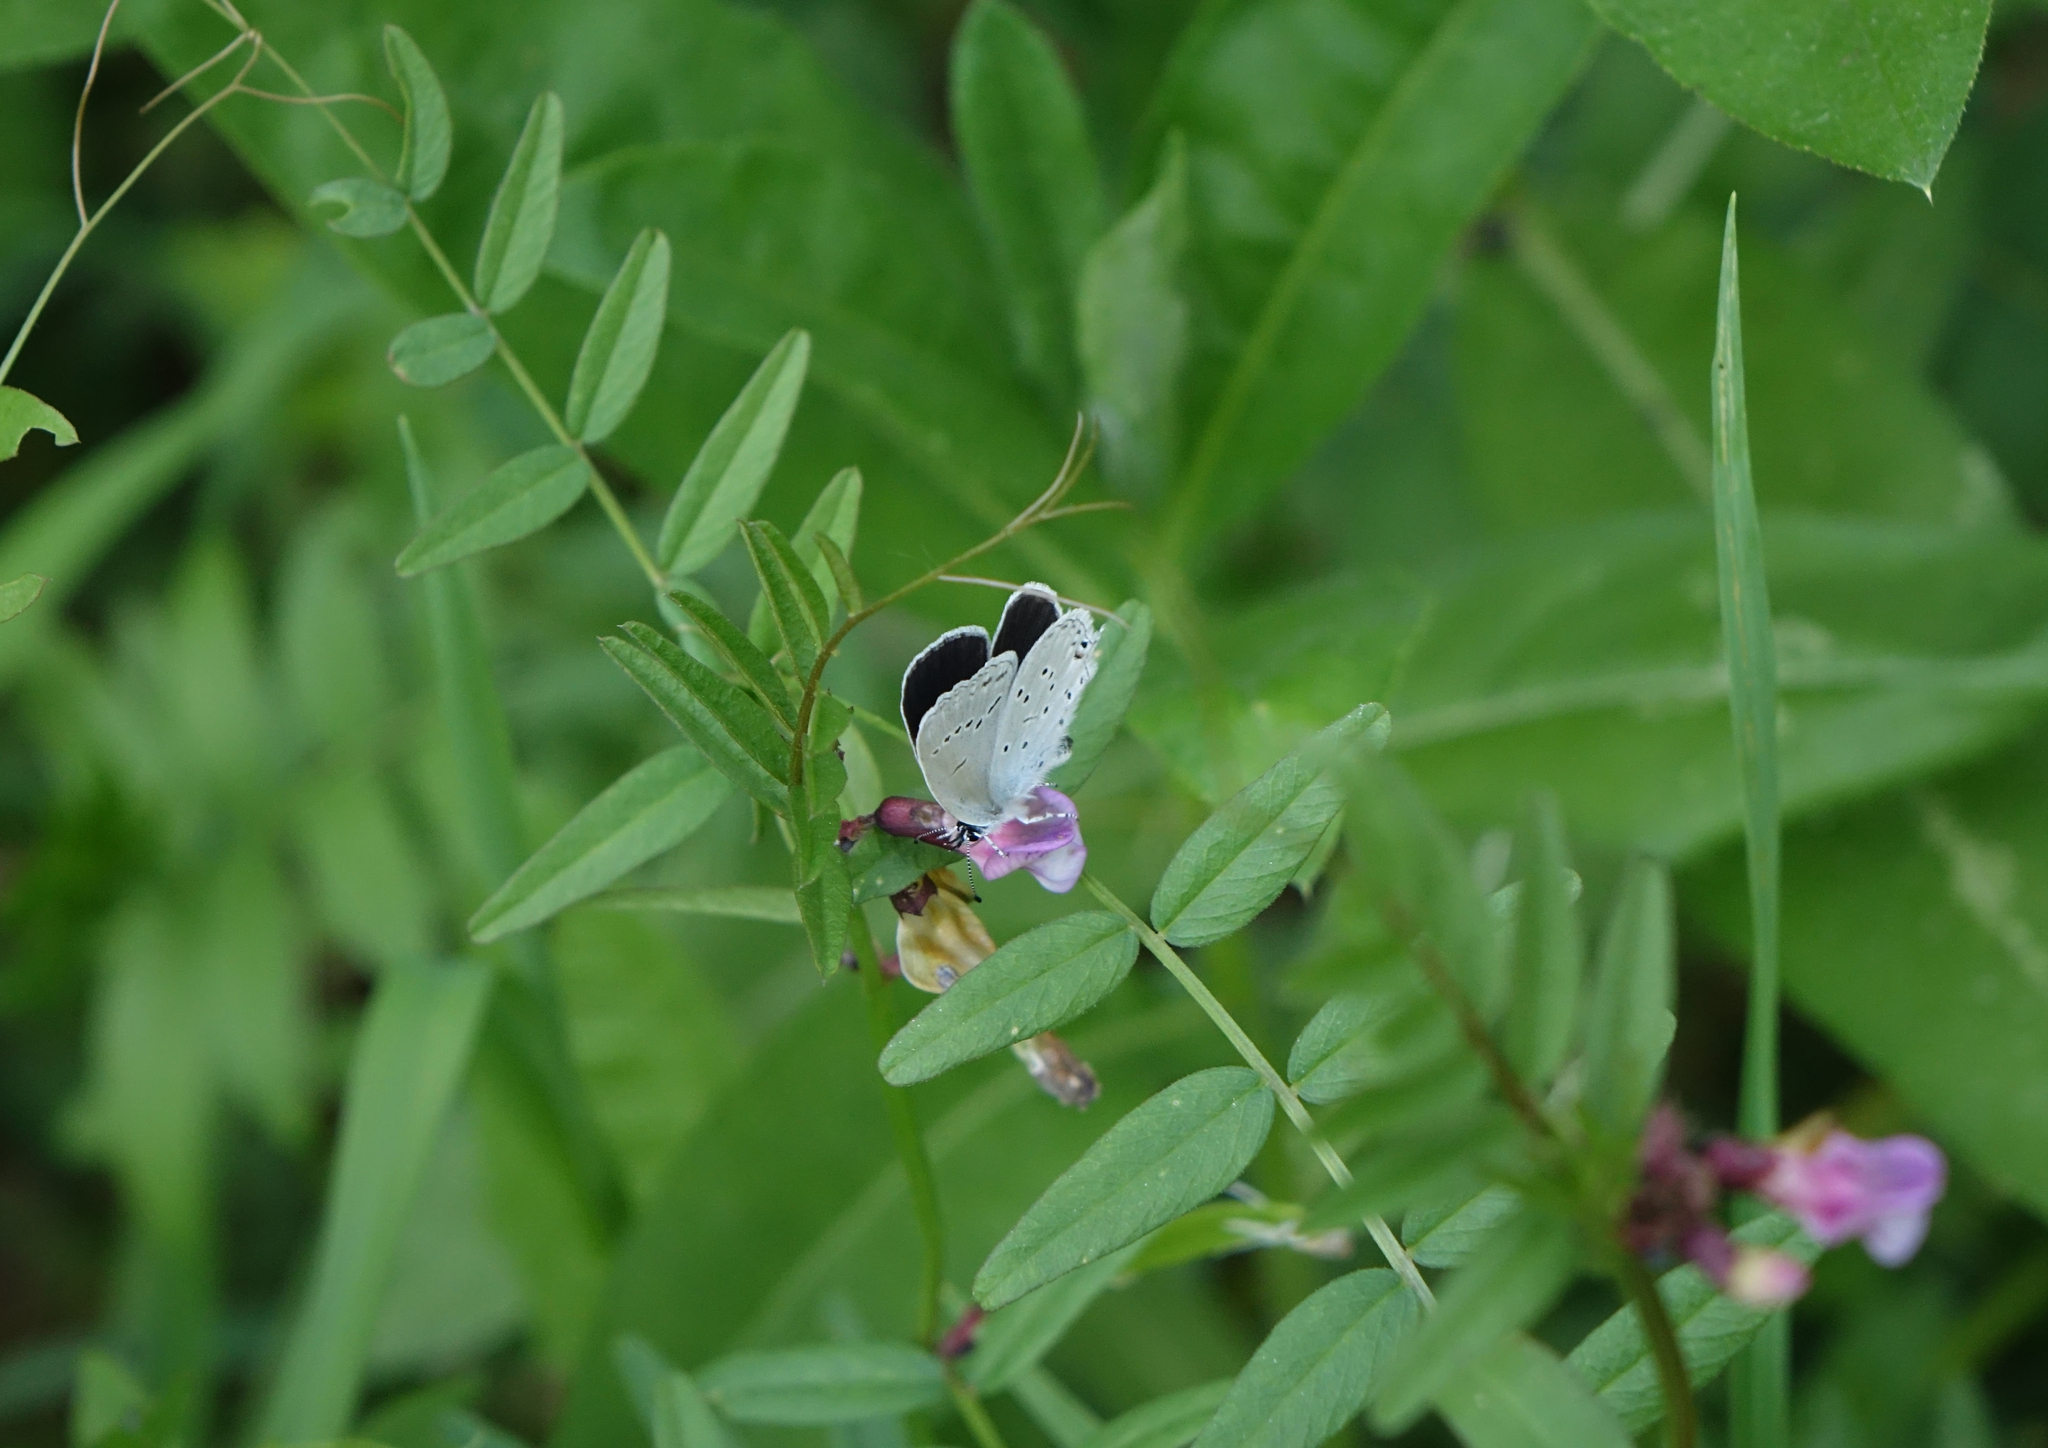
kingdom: Animalia
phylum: Arthropoda
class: Insecta
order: Lepidoptera
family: Lycaenidae
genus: Elkalyce
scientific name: Elkalyce alcetas
